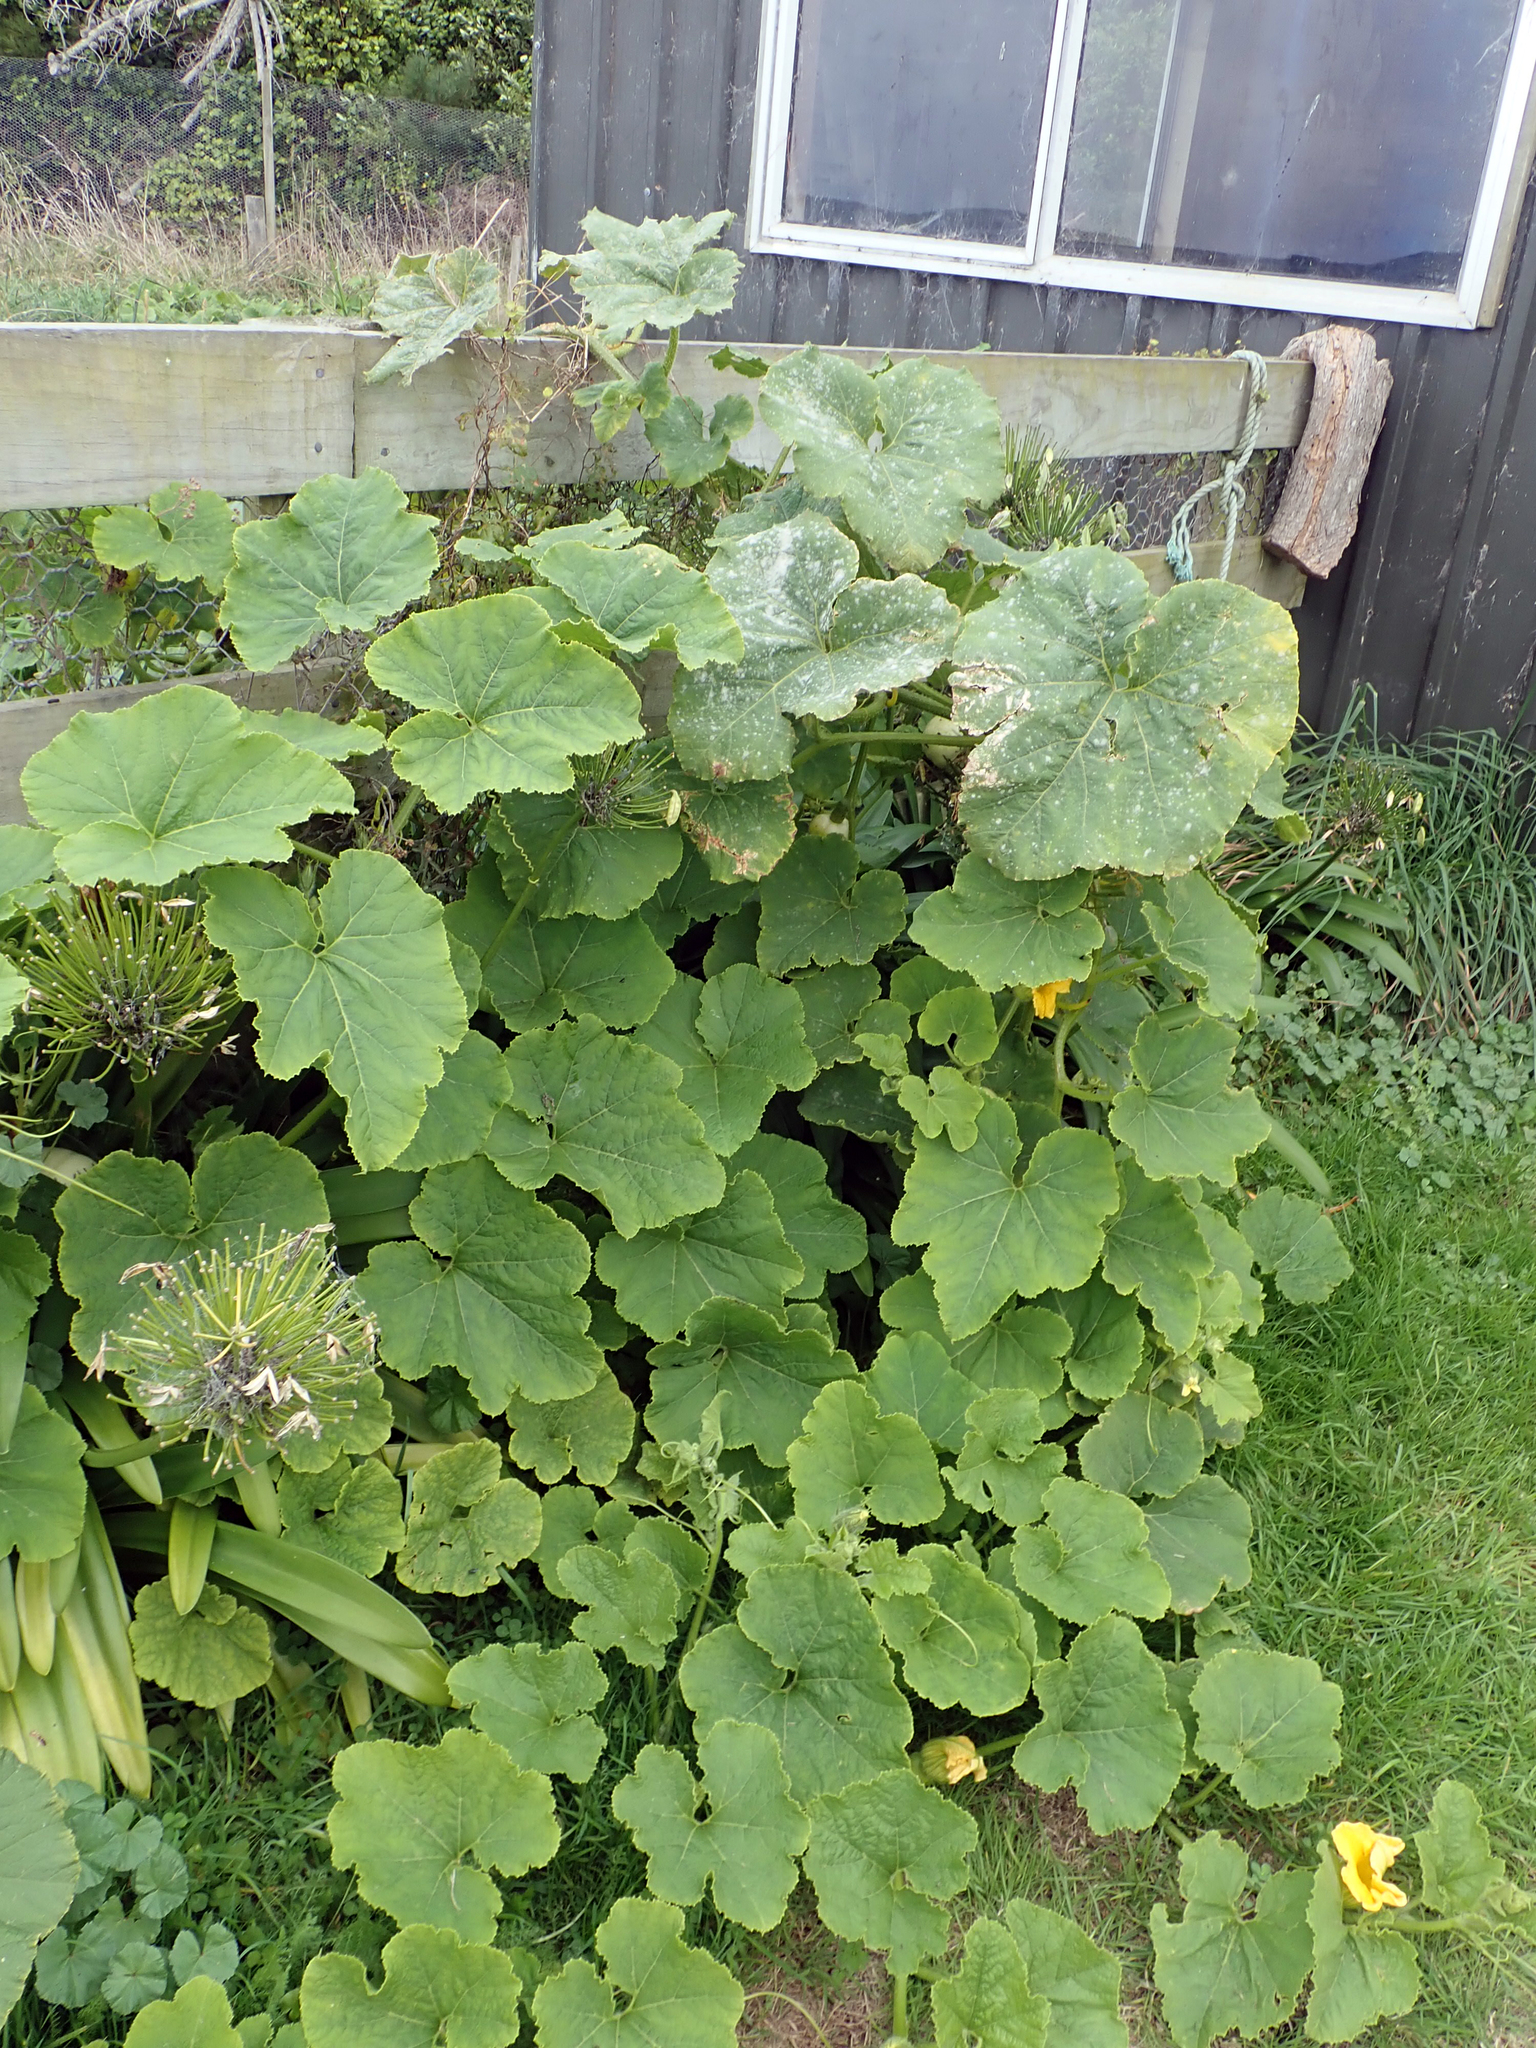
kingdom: Fungi
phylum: Ascomycota
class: Leotiomycetes
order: Helotiales
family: Erysiphaceae
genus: Golovinomyces
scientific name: Golovinomyces tabaci
